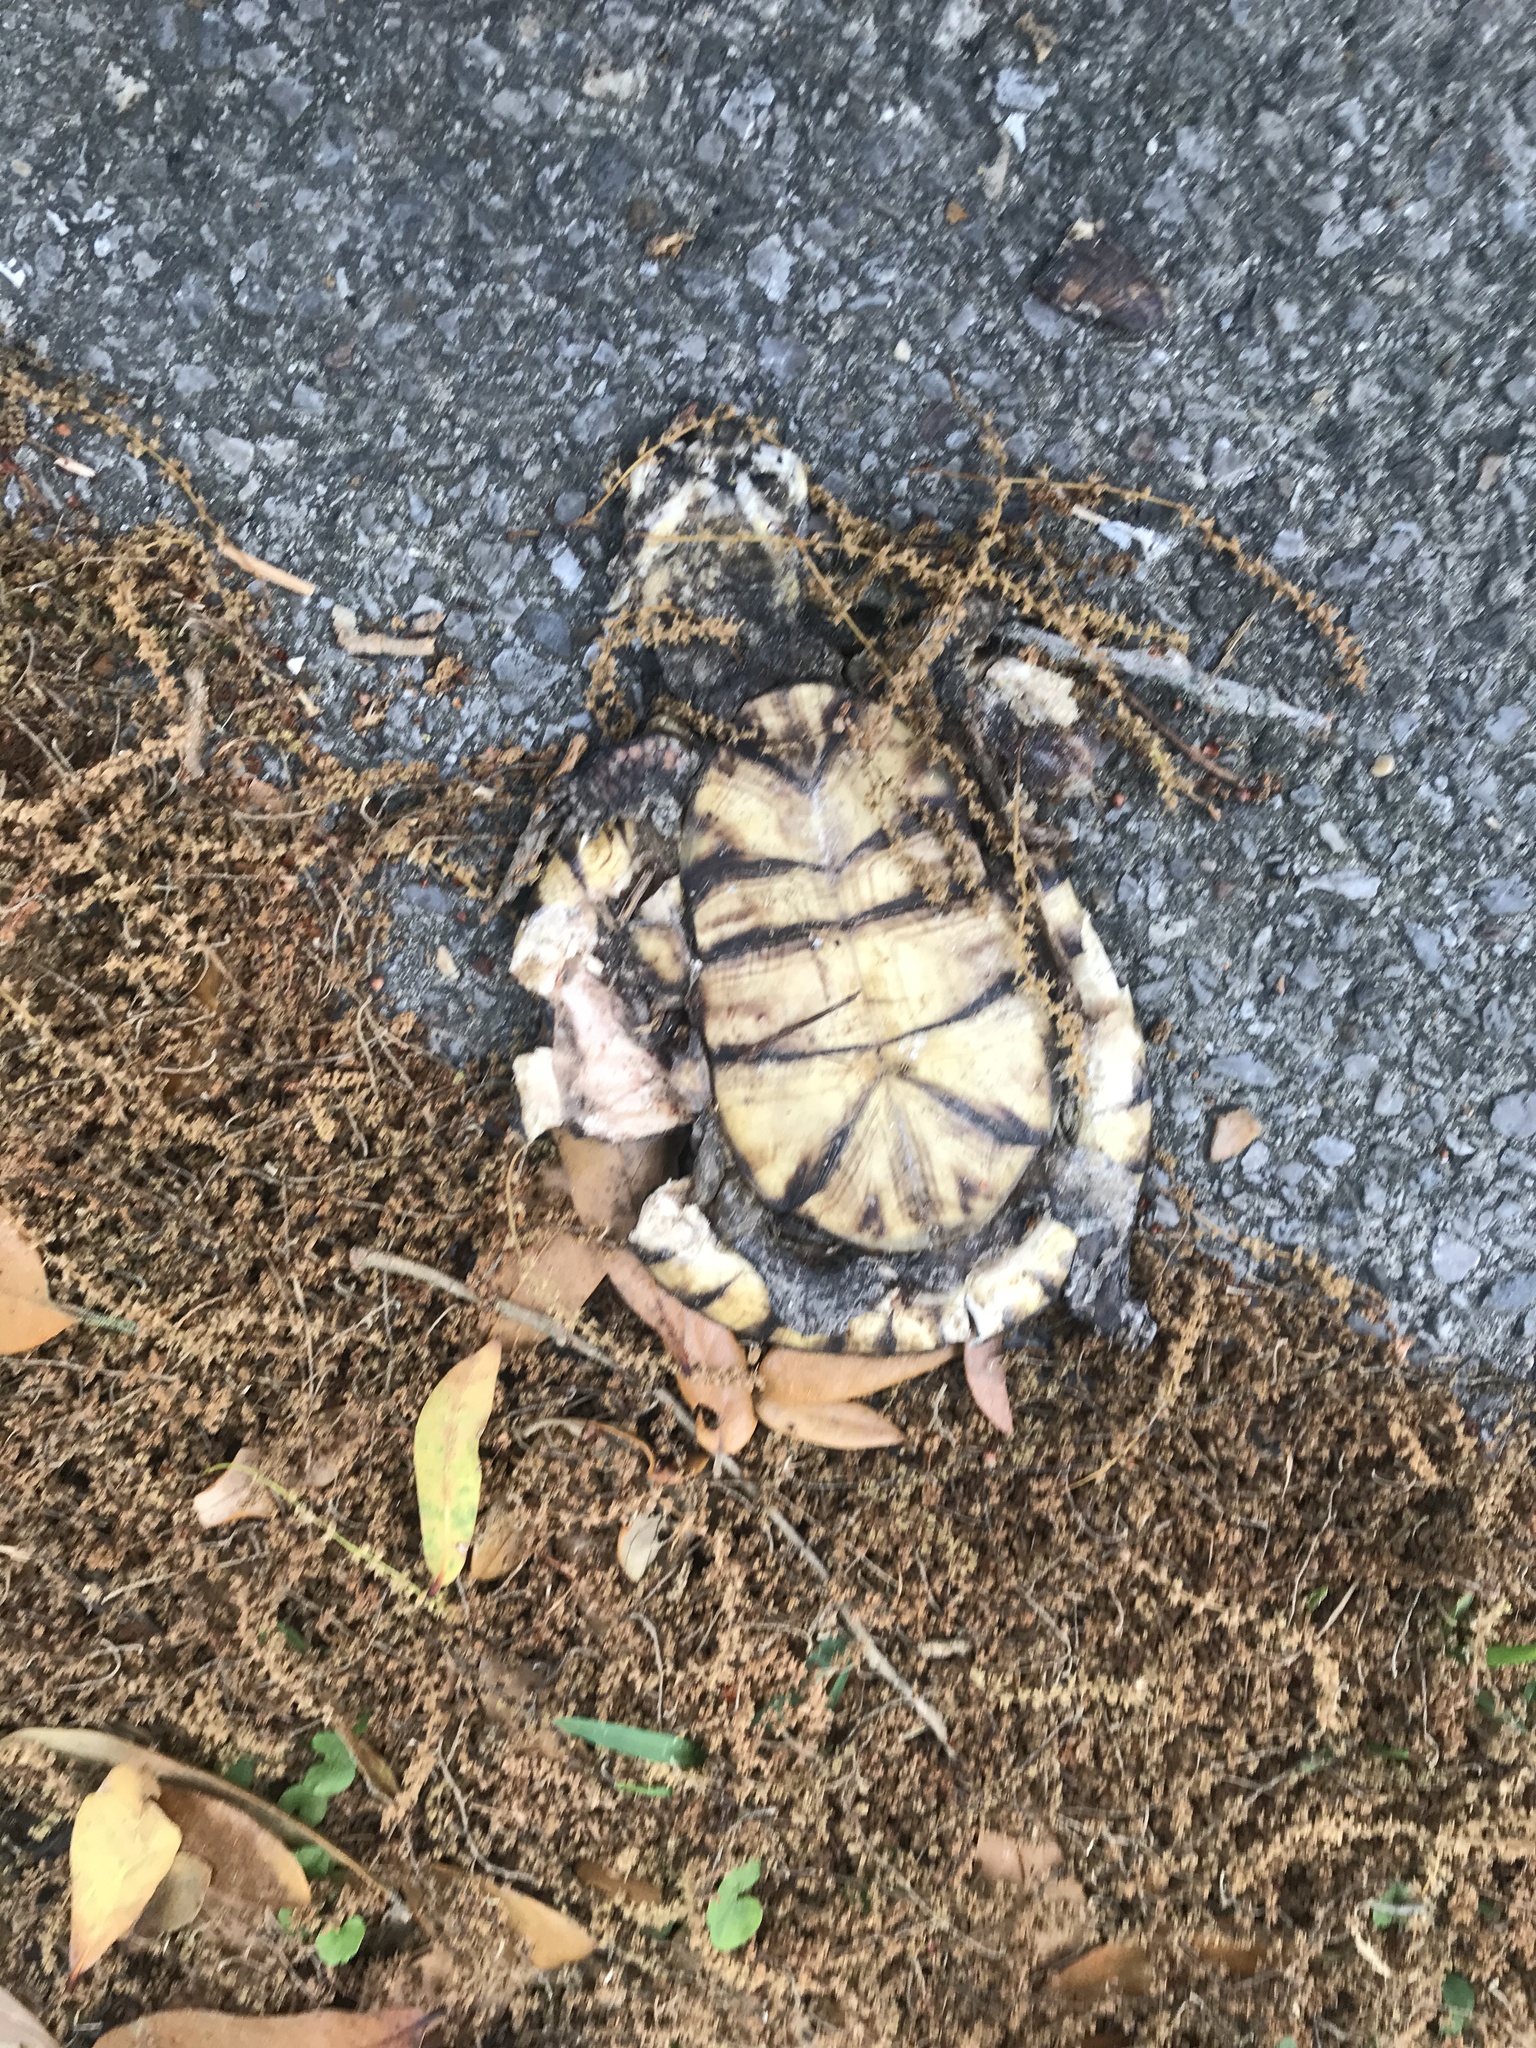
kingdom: Animalia
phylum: Chordata
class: Testudines
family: Emydidae
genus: Terrapene
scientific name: Terrapene carolina
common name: Common box turtle
